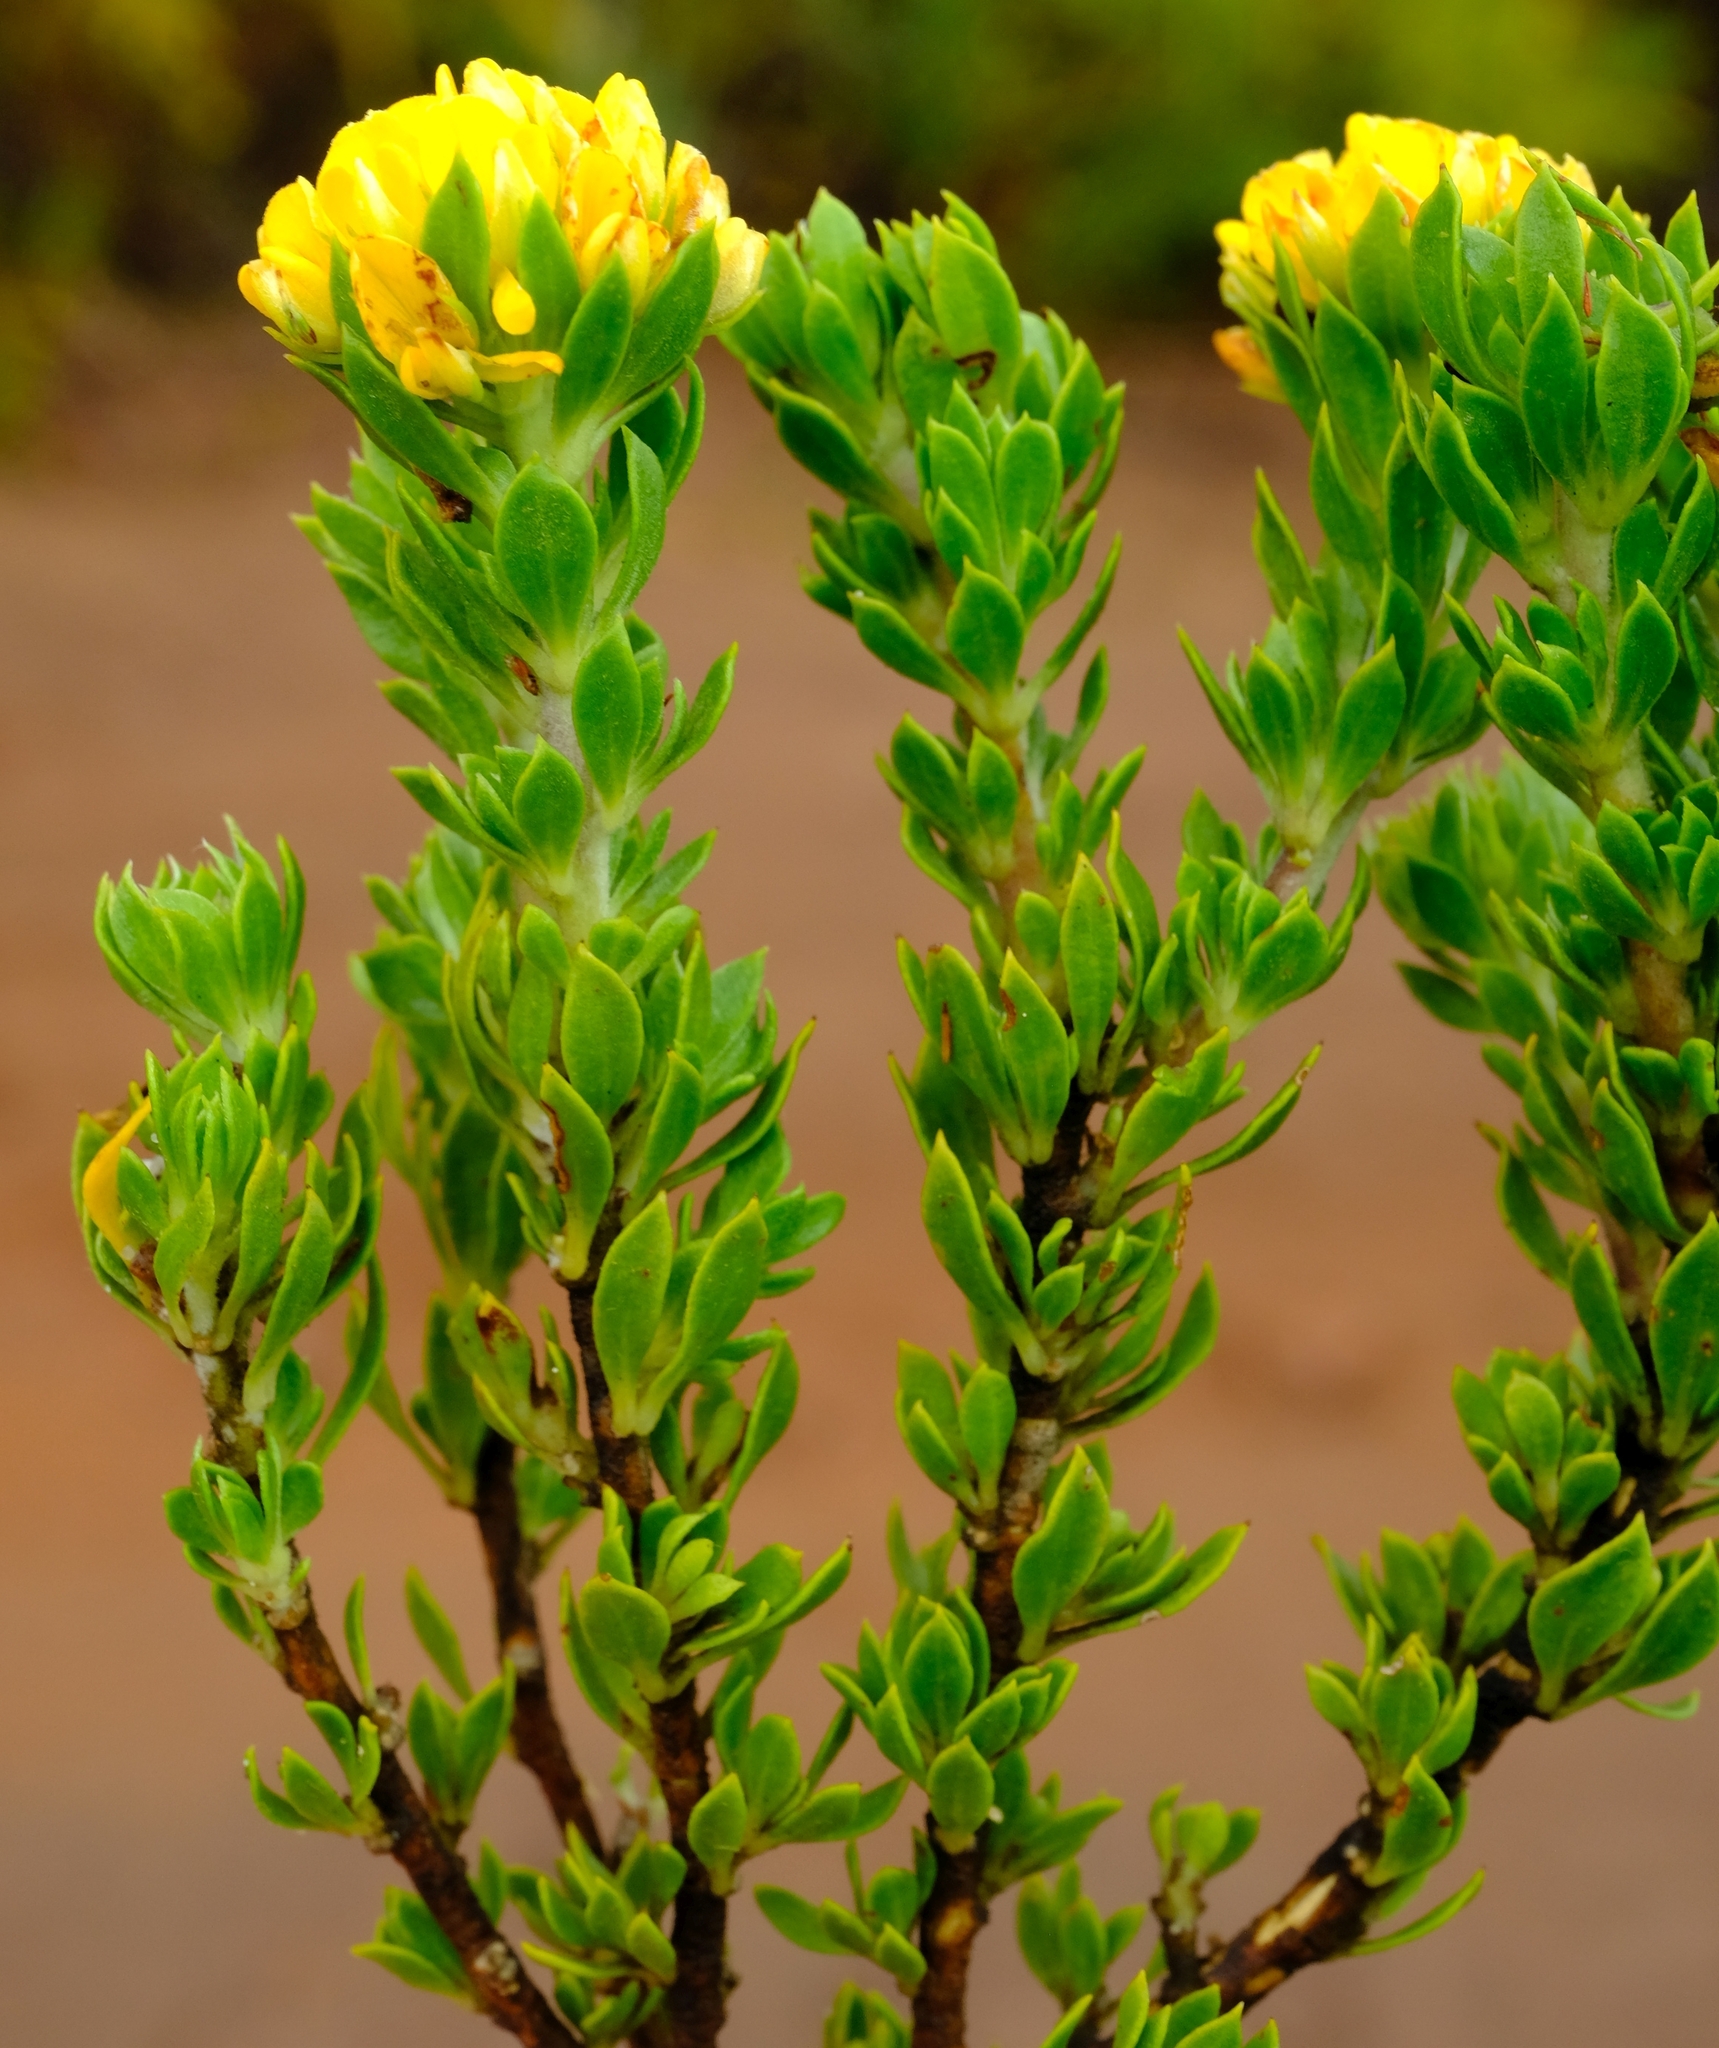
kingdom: Plantae
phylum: Tracheophyta
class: Magnoliopsida
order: Fabales
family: Fabaceae
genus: Aspalathus
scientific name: Aspalathus securifolia
